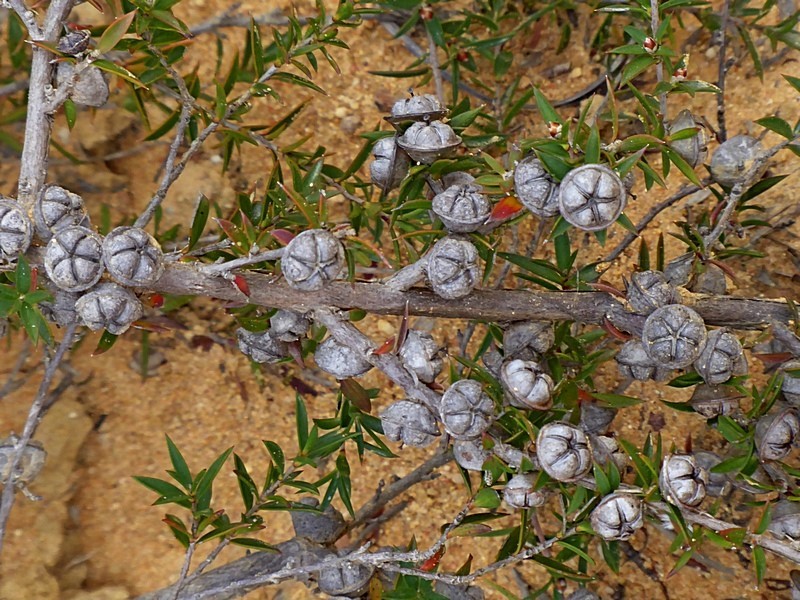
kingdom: Plantae
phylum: Tracheophyta
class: Magnoliopsida
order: Myrtales
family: Myrtaceae
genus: Leptospermum
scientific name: Leptospermum continentale
